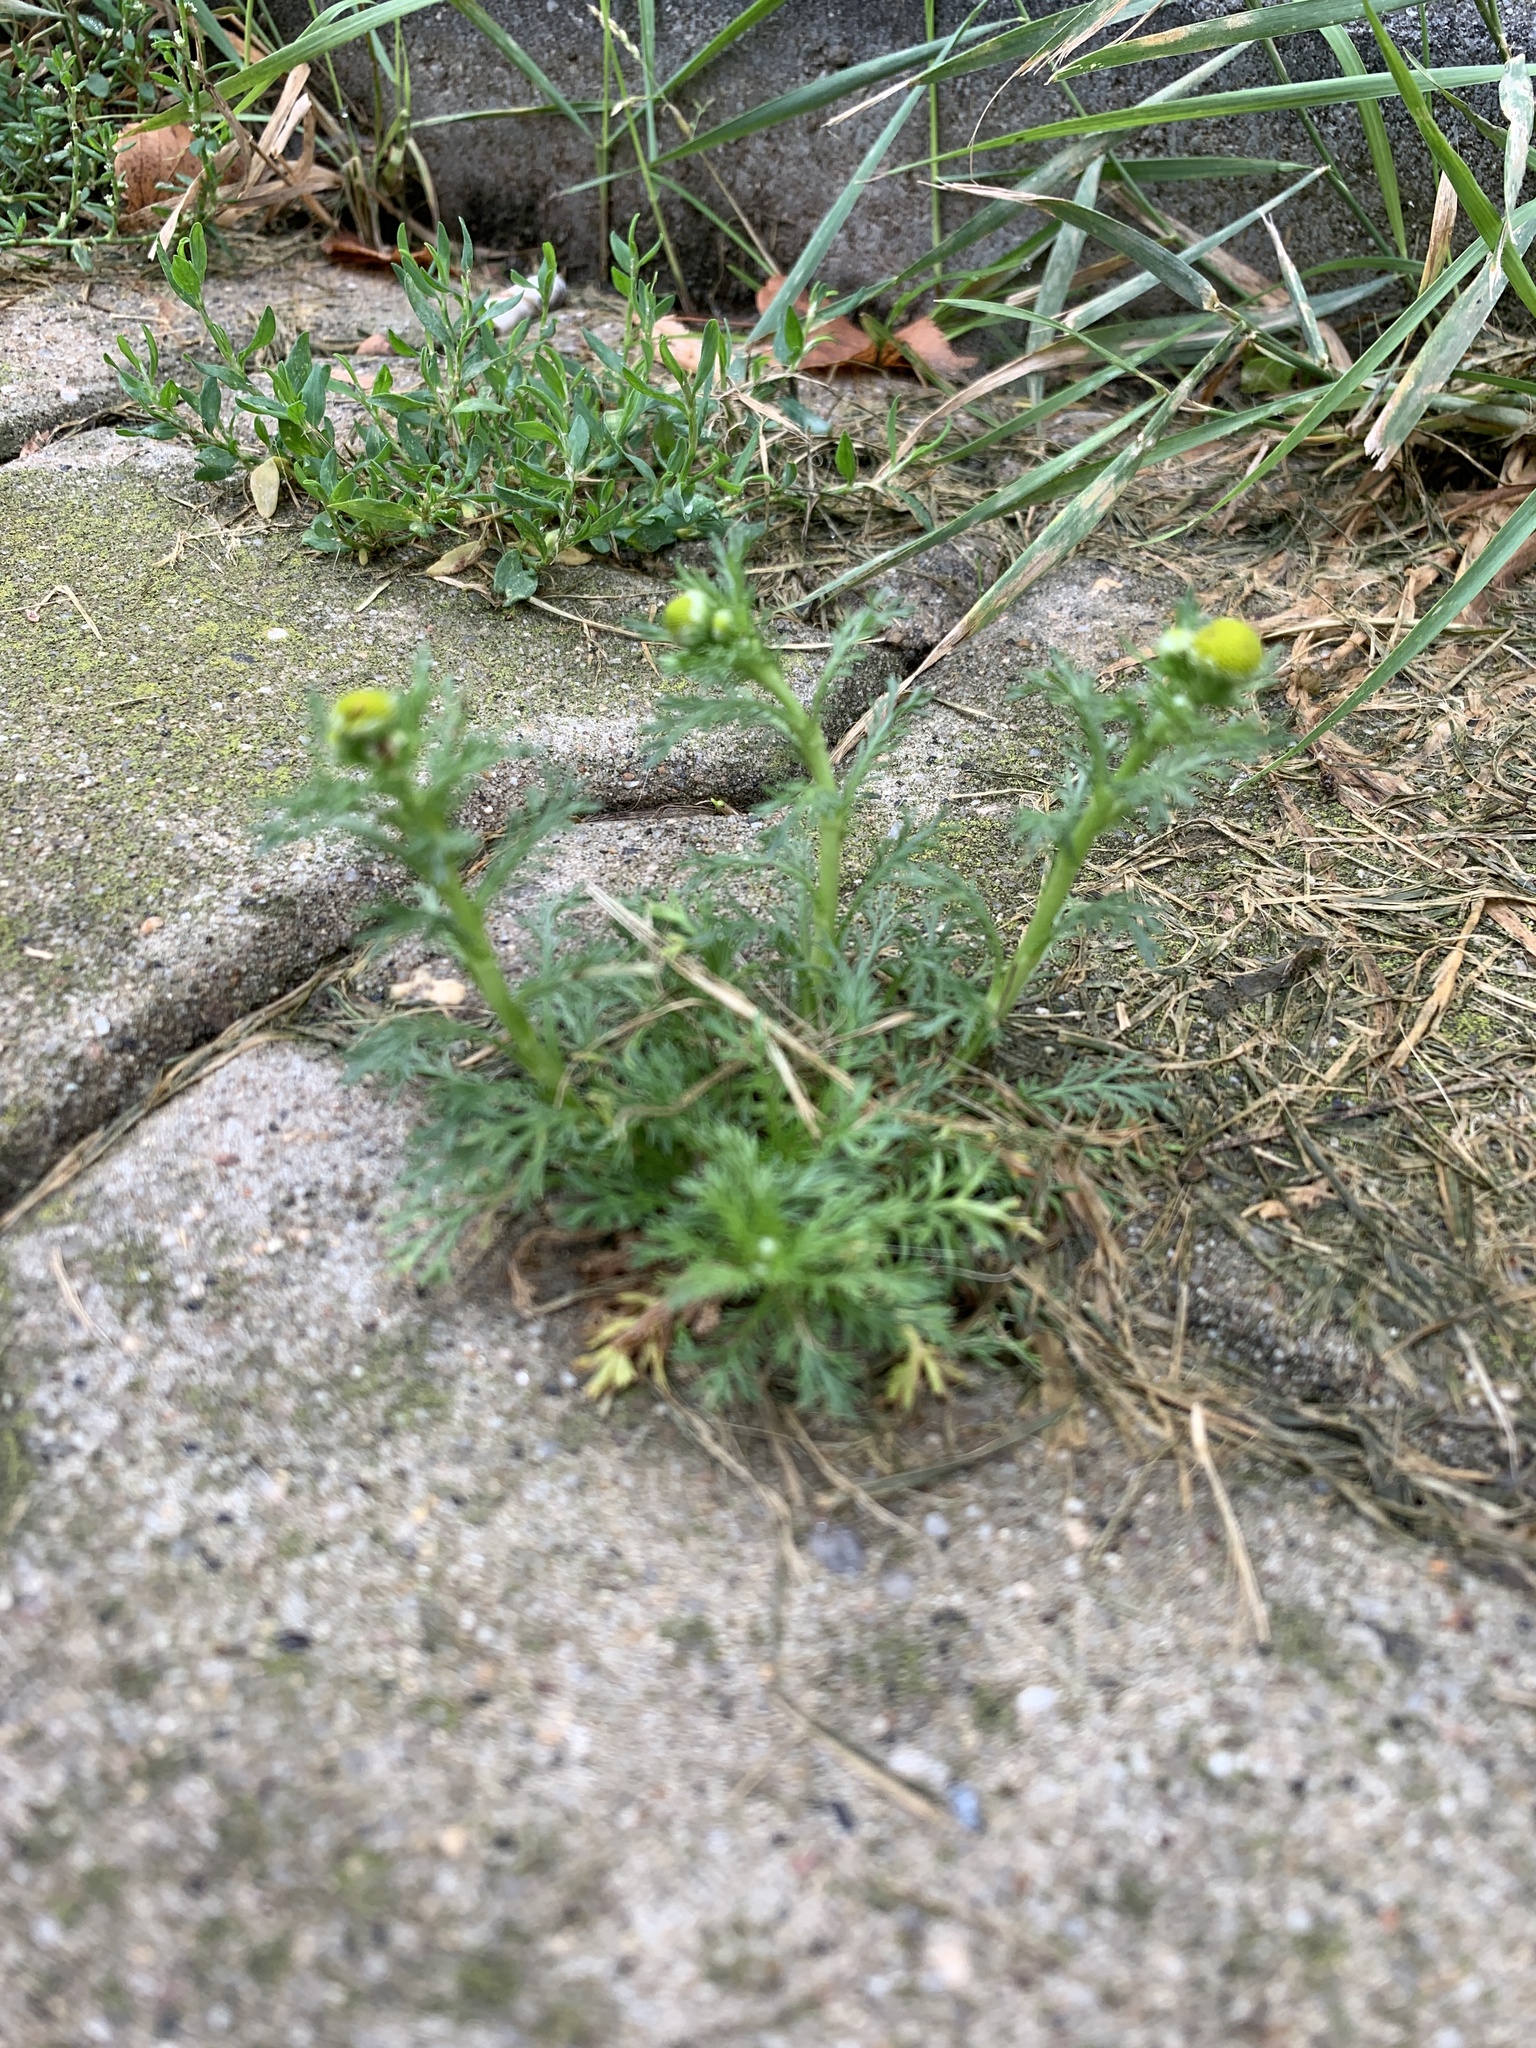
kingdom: Plantae
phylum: Tracheophyta
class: Magnoliopsida
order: Asterales
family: Asteraceae
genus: Matricaria
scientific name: Matricaria discoidea
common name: Disc mayweed
